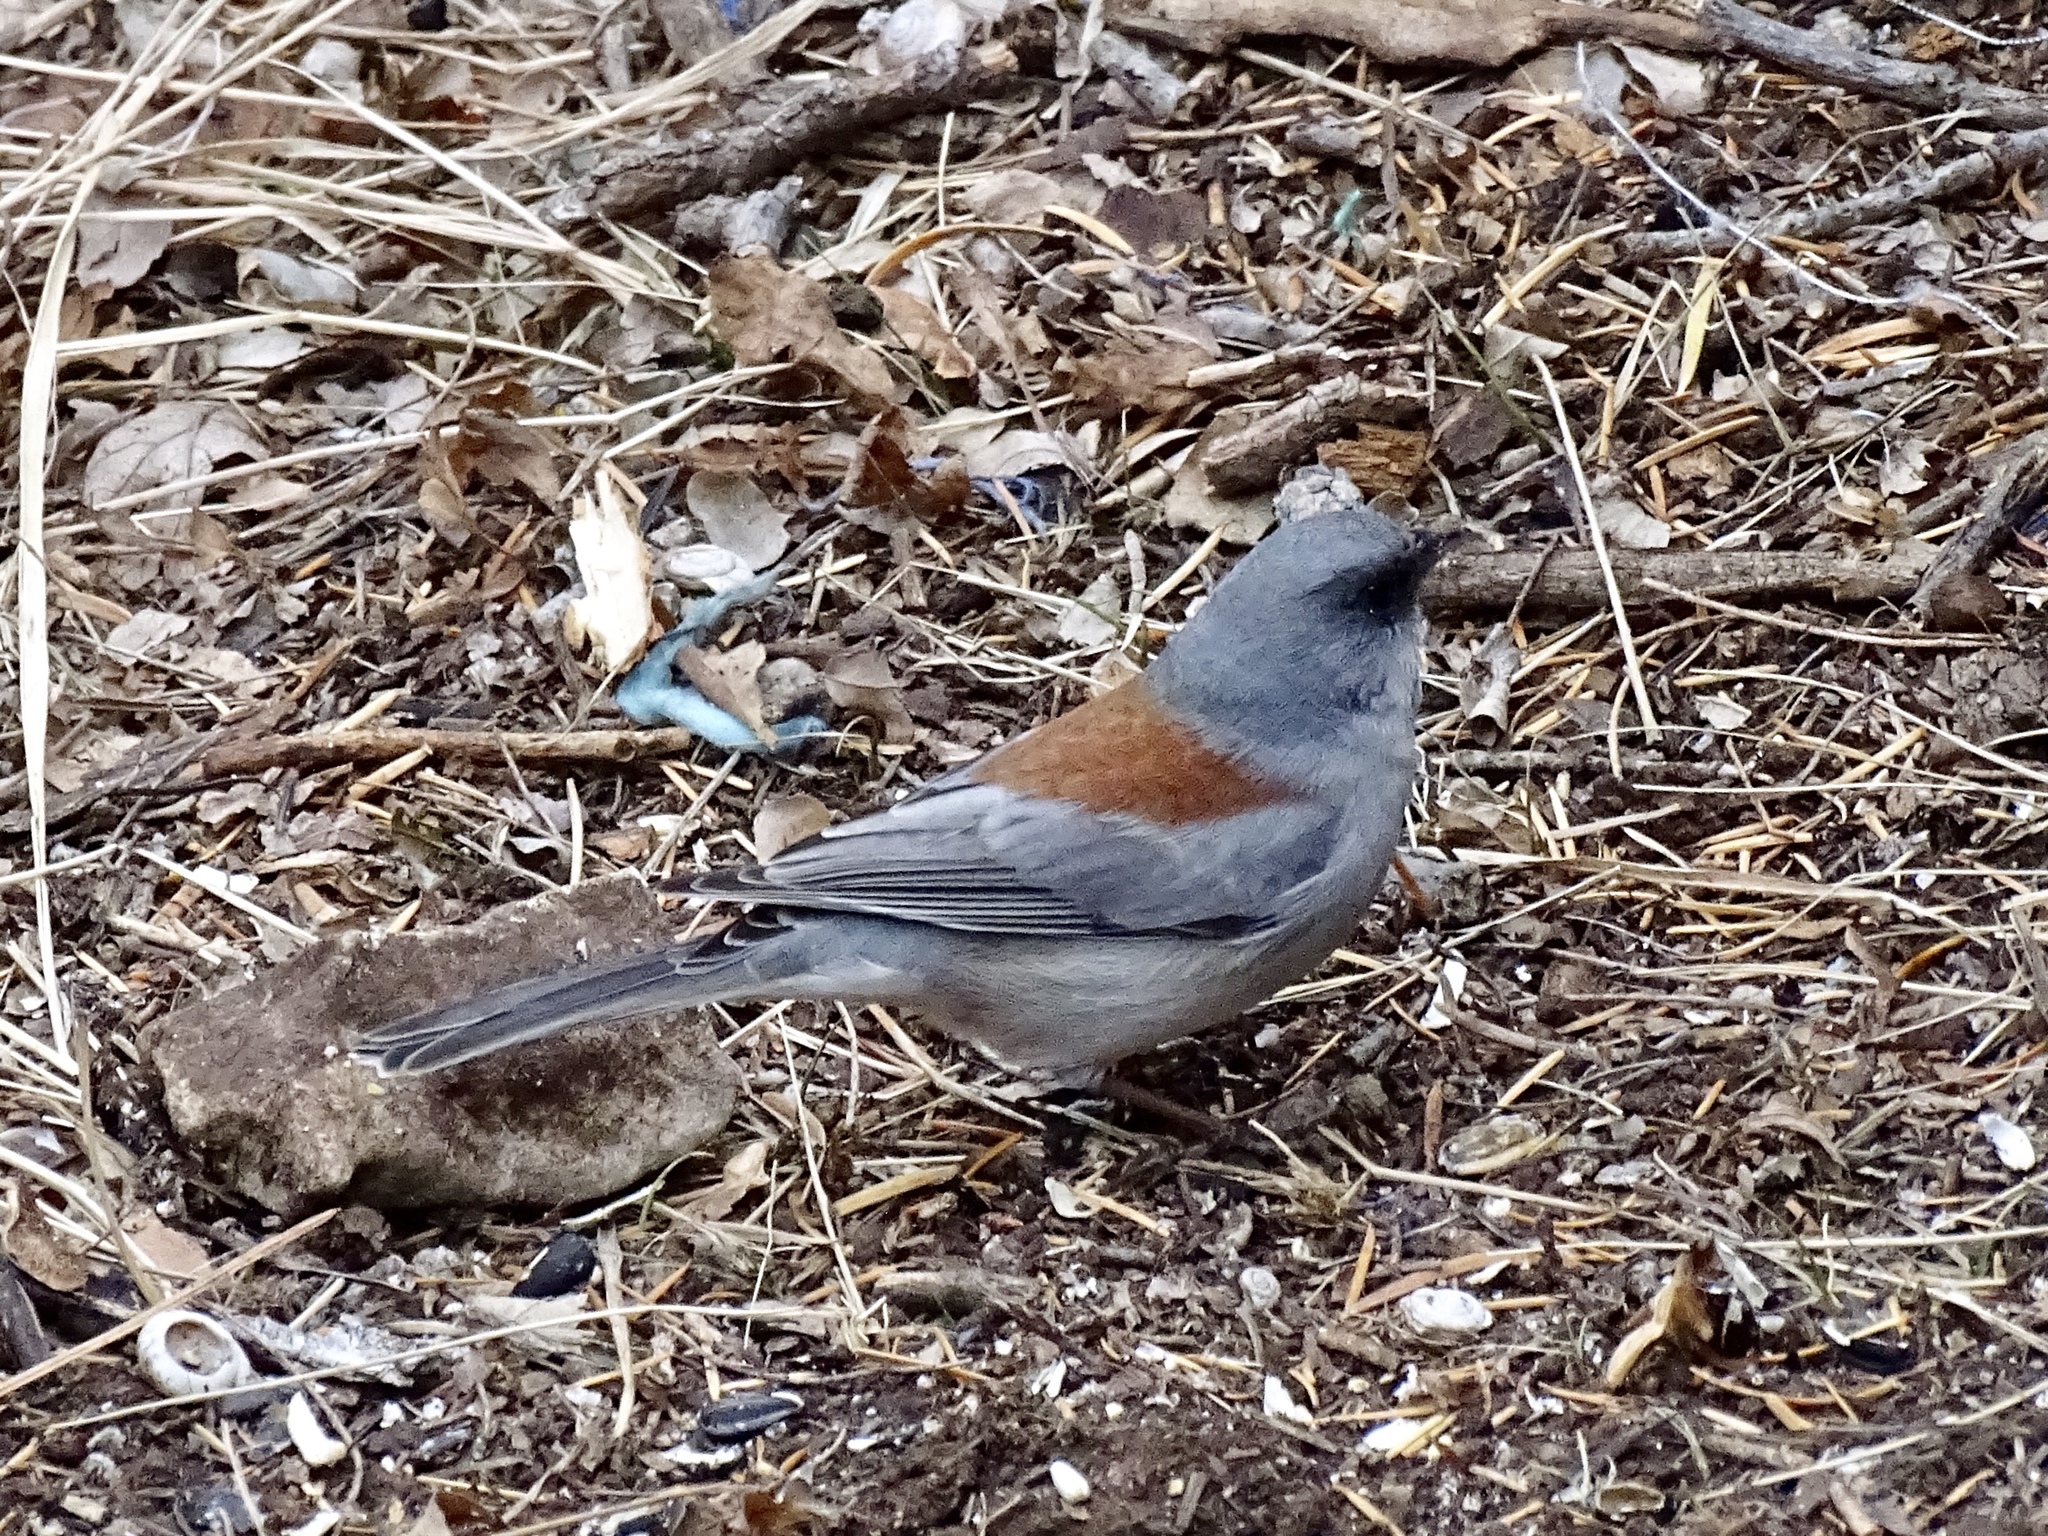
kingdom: Animalia
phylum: Chordata
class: Aves
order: Passeriformes
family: Passerellidae
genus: Junco
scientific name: Junco hyemalis
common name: Dark-eyed junco
